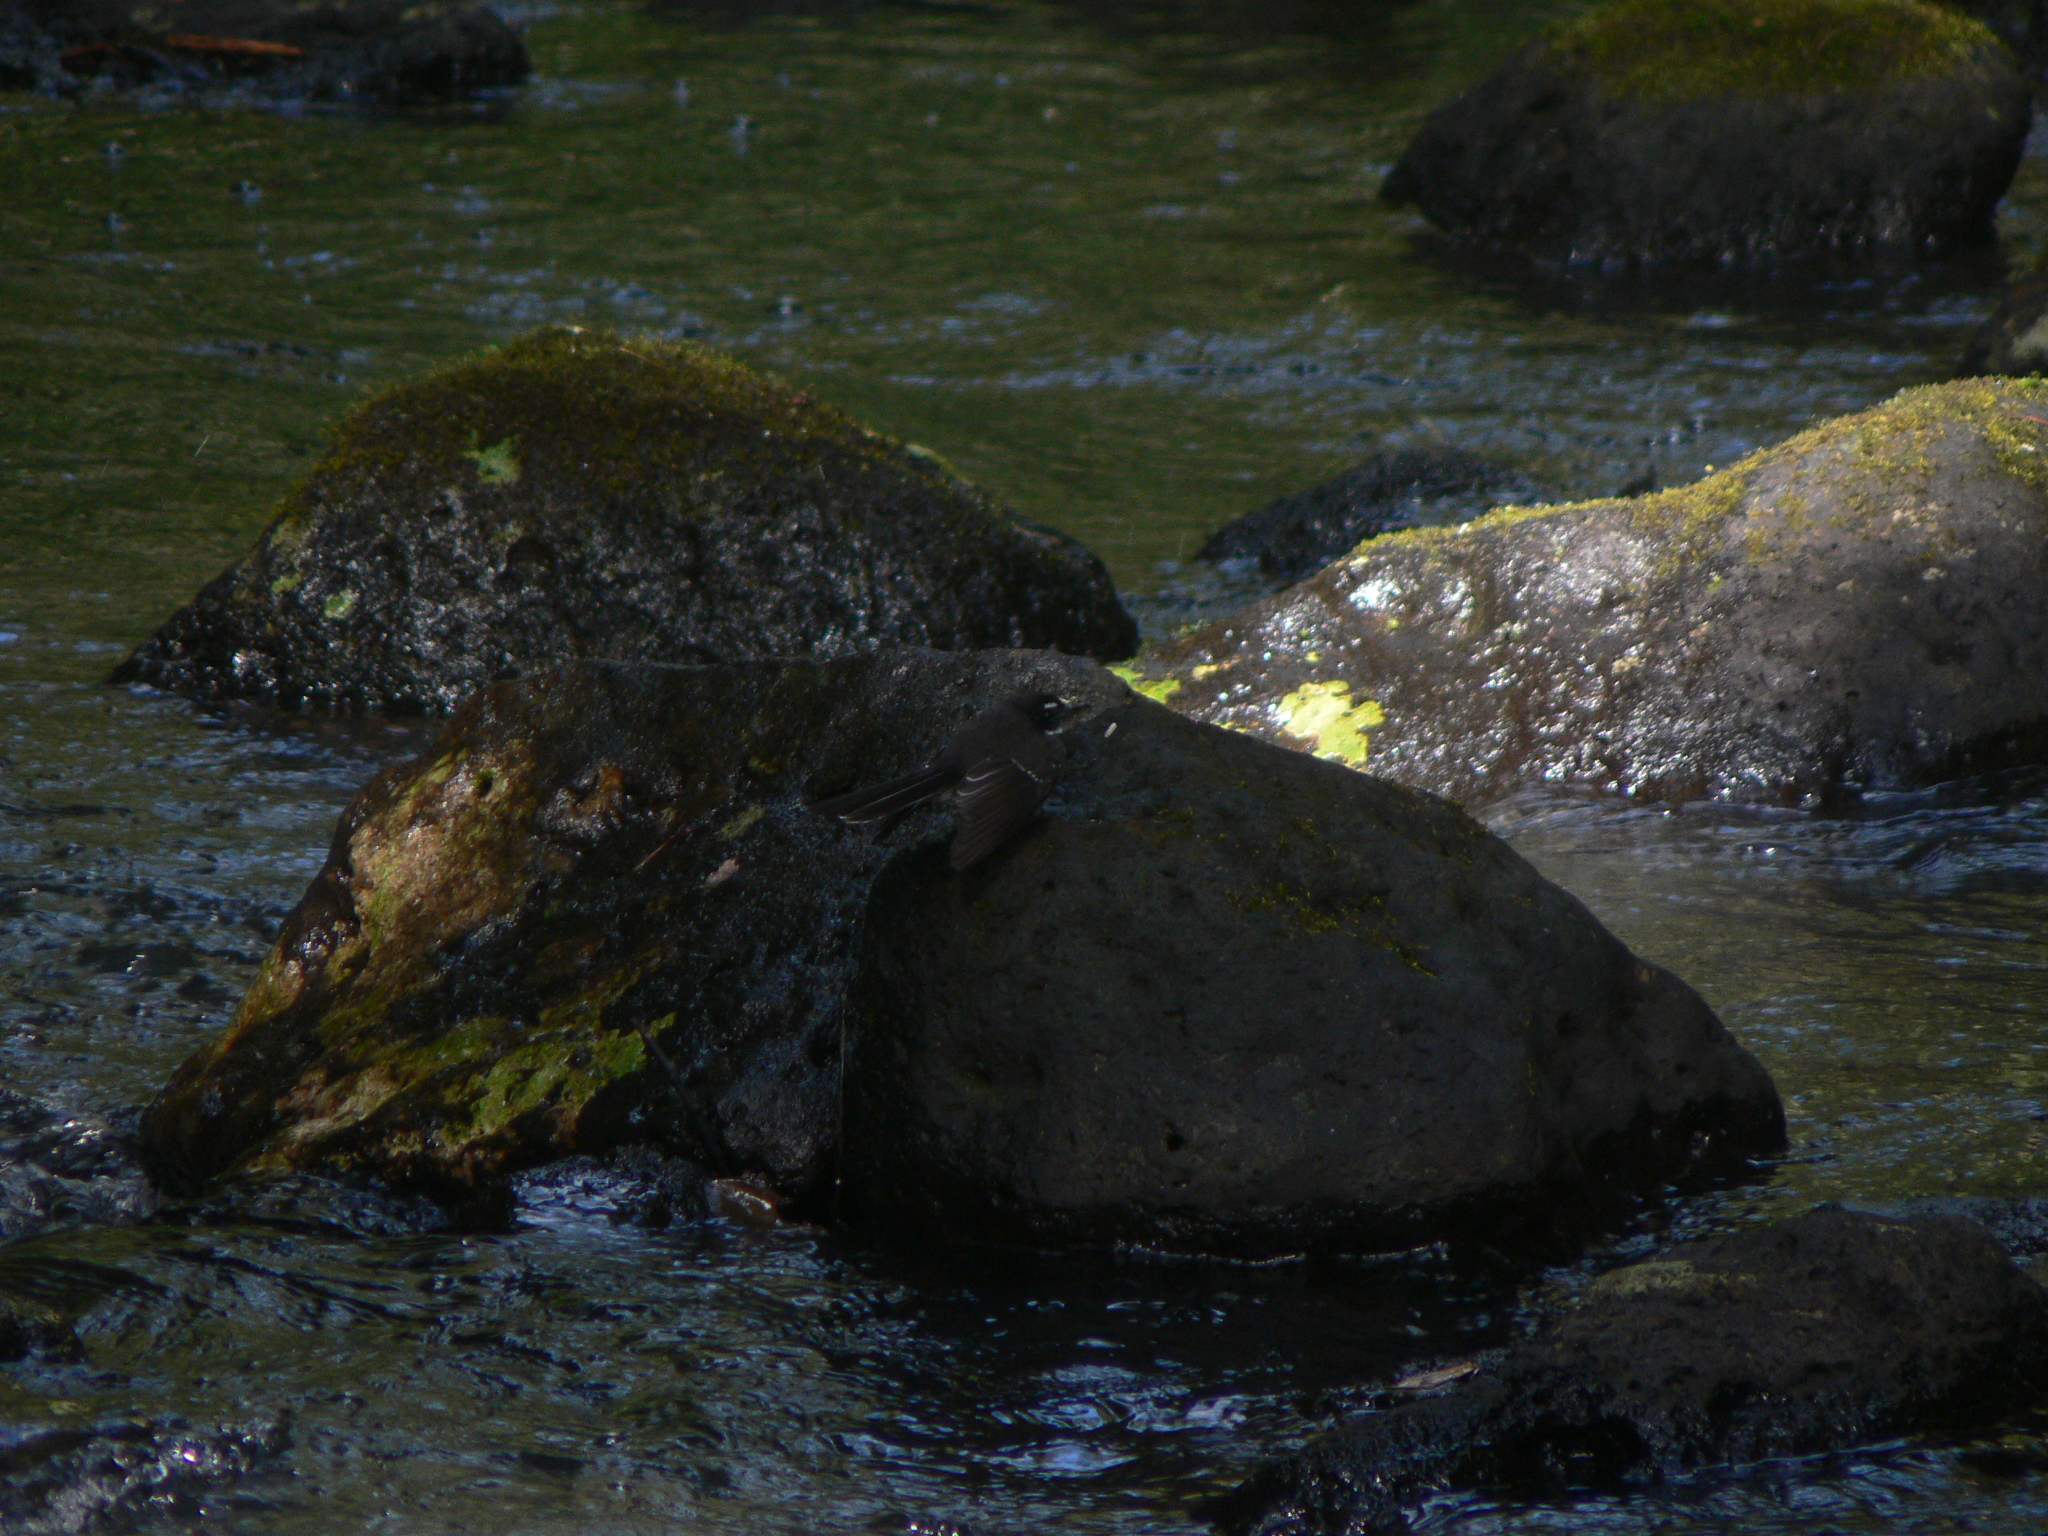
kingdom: Animalia
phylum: Chordata
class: Aves
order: Passeriformes
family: Rhipiduridae
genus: Rhipidura
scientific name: Rhipidura albiscapa
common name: Grey fantail
